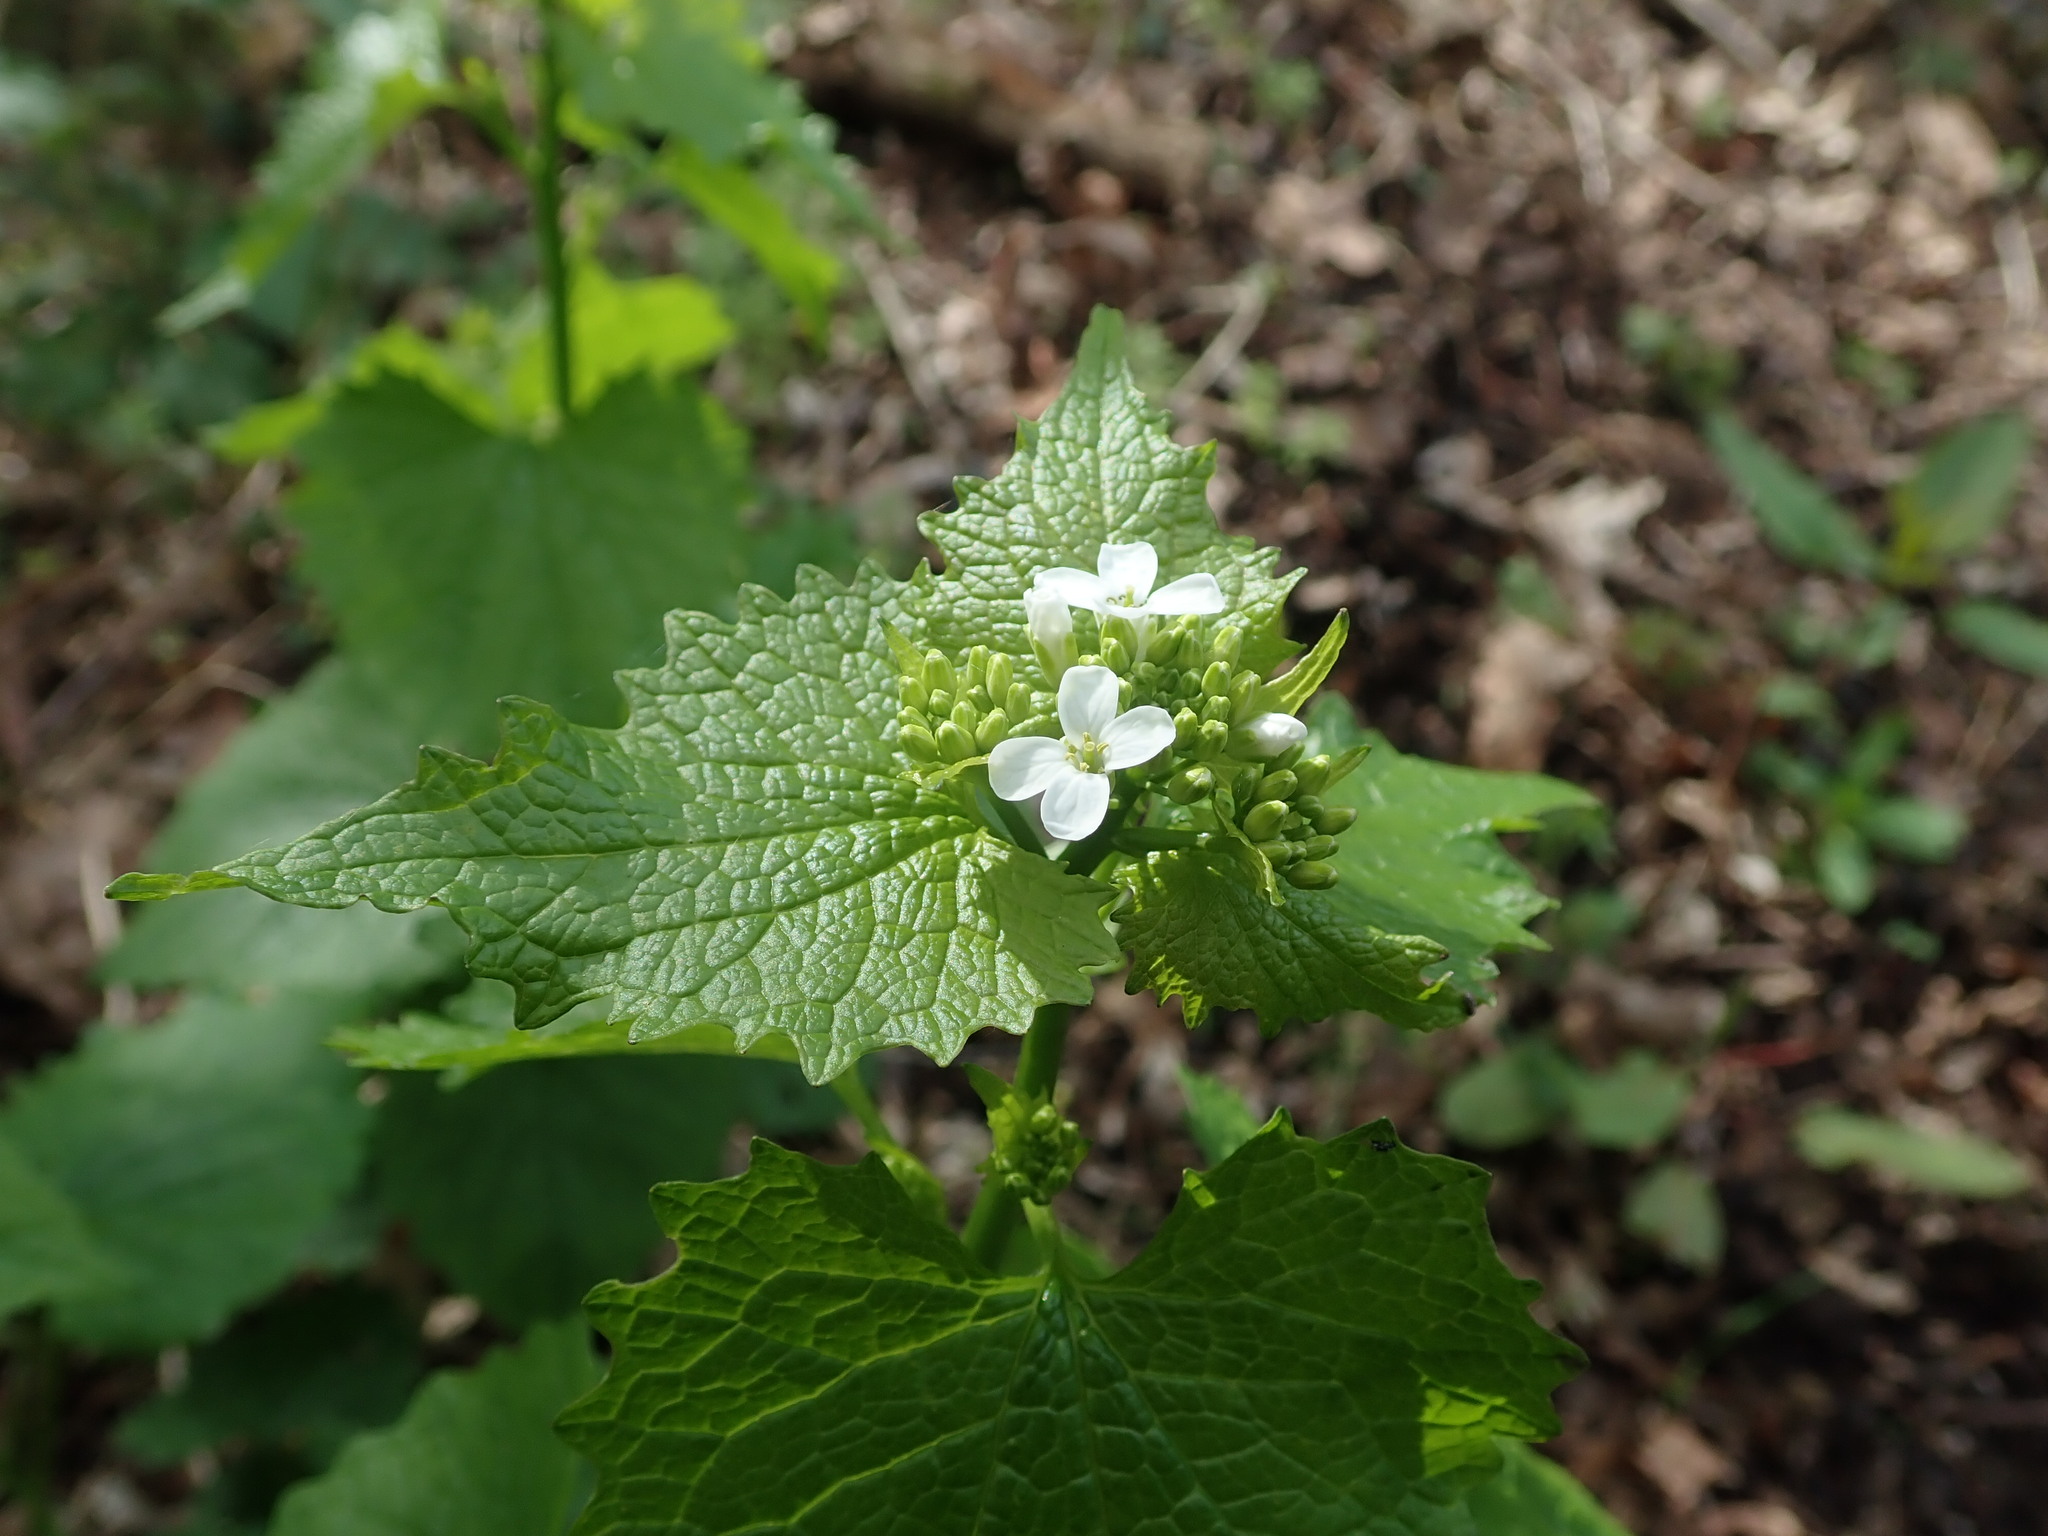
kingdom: Plantae
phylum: Tracheophyta
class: Magnoliopsida
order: Brassicales
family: Brassicaceae
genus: Alliaria
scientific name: Alliaria petiolata
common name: Garlic mustard
